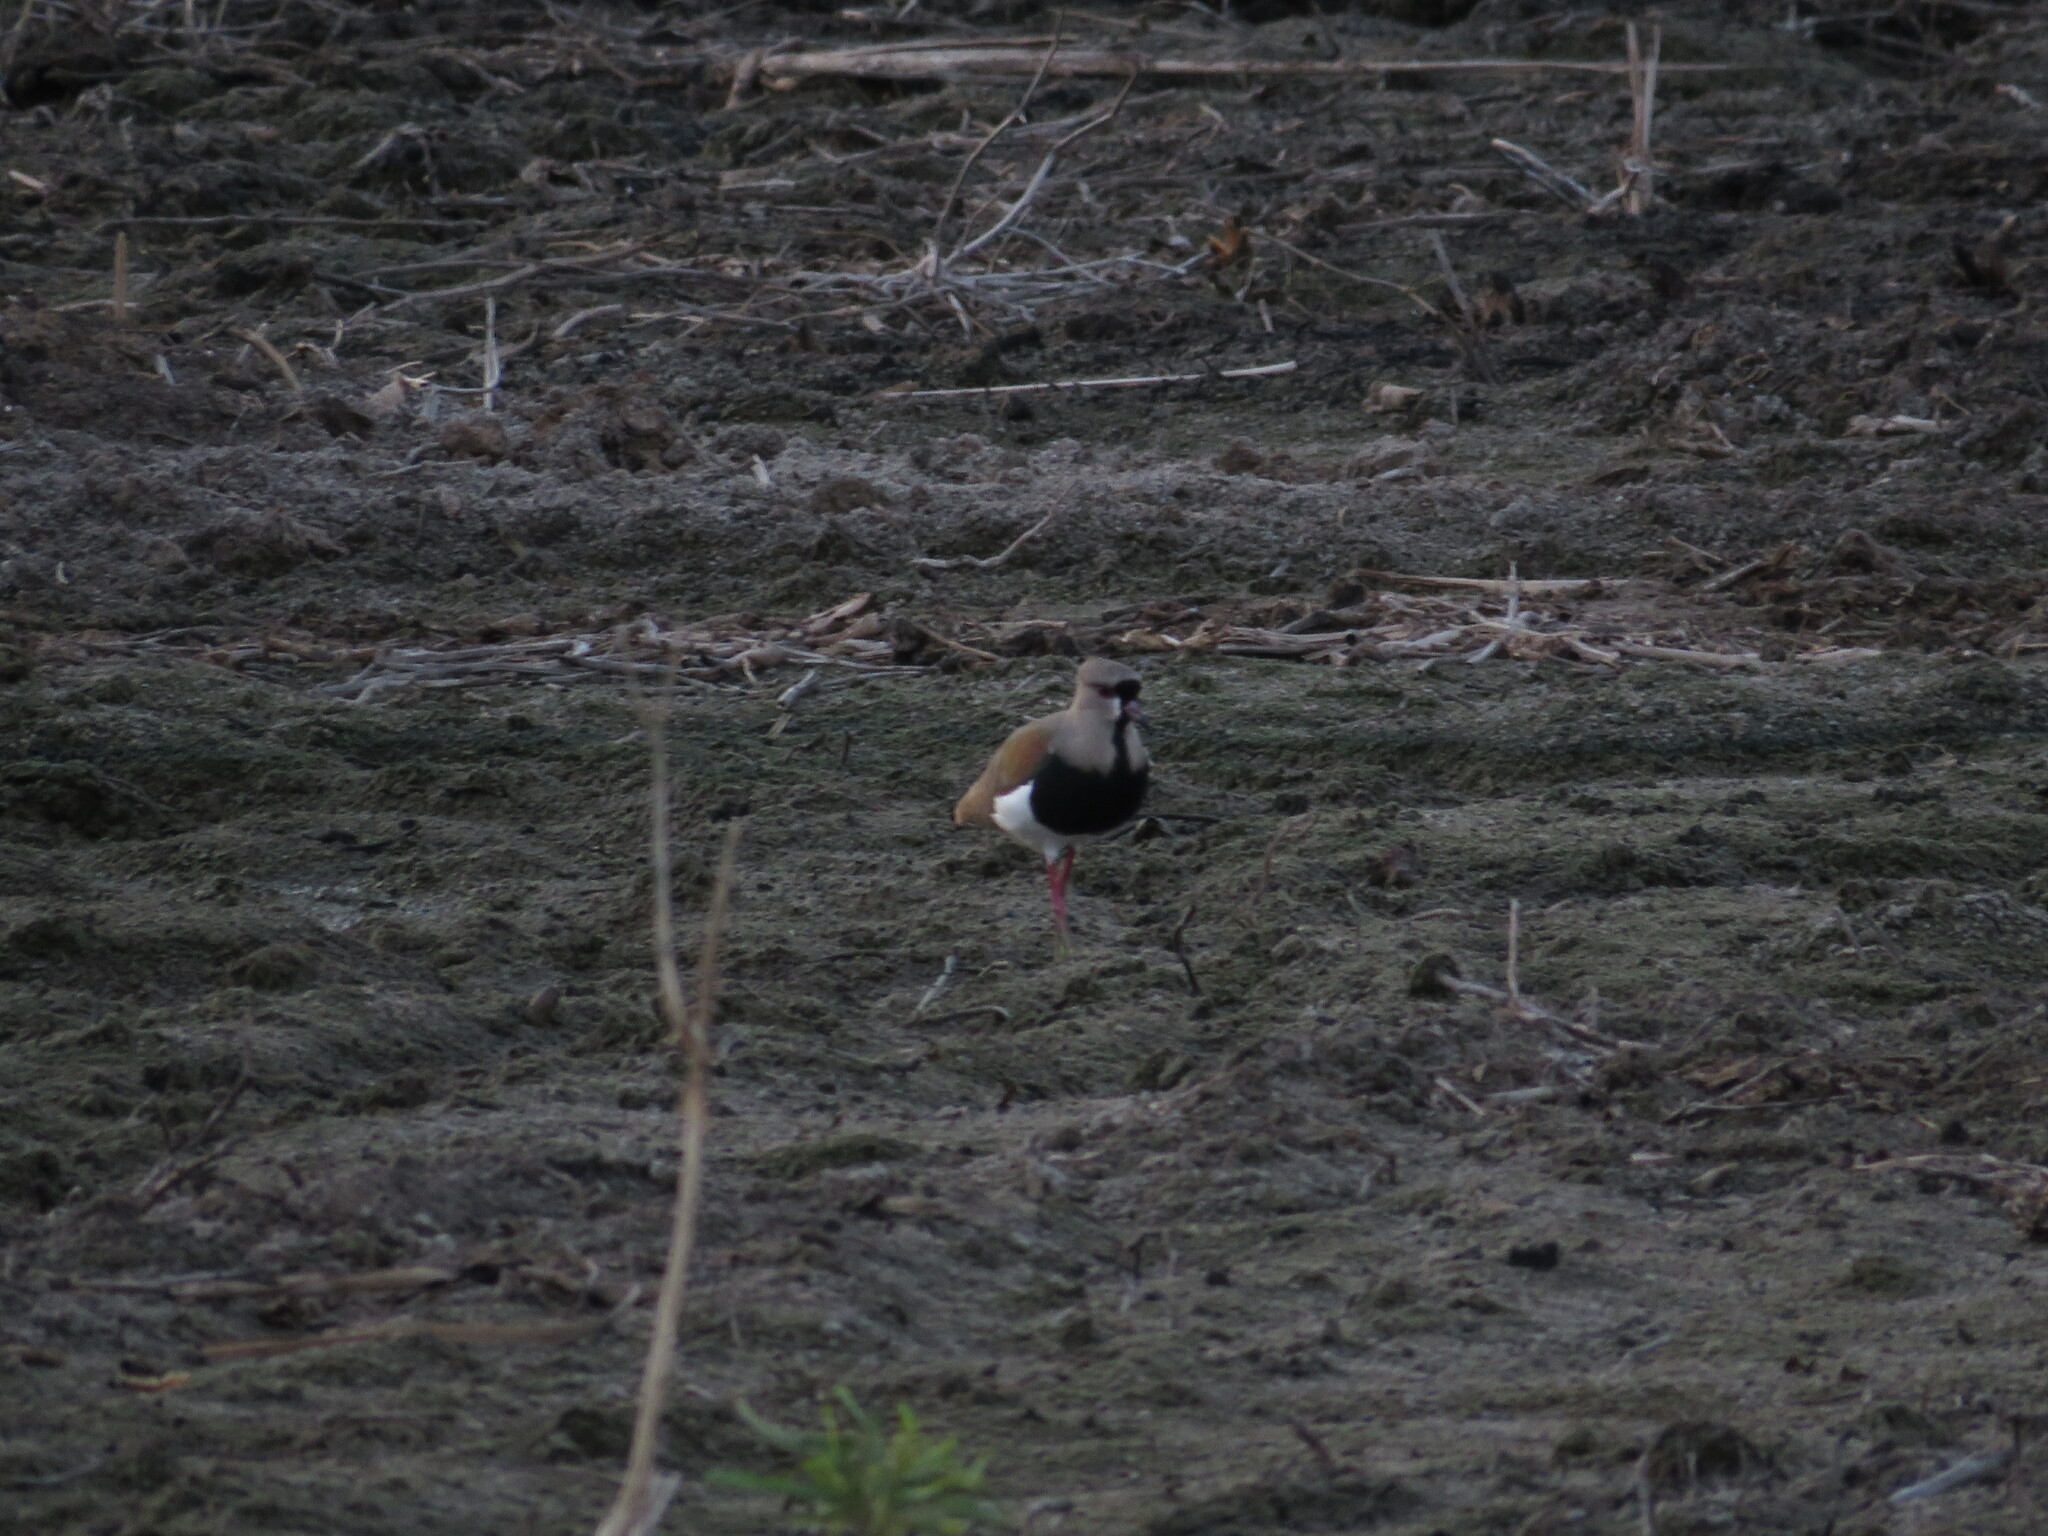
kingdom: Animalia
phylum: Chordata
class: Aves
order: Charadriiformes
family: Charadriidae
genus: Vanellus
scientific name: Vanellus chilensis
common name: Southern lapwing
